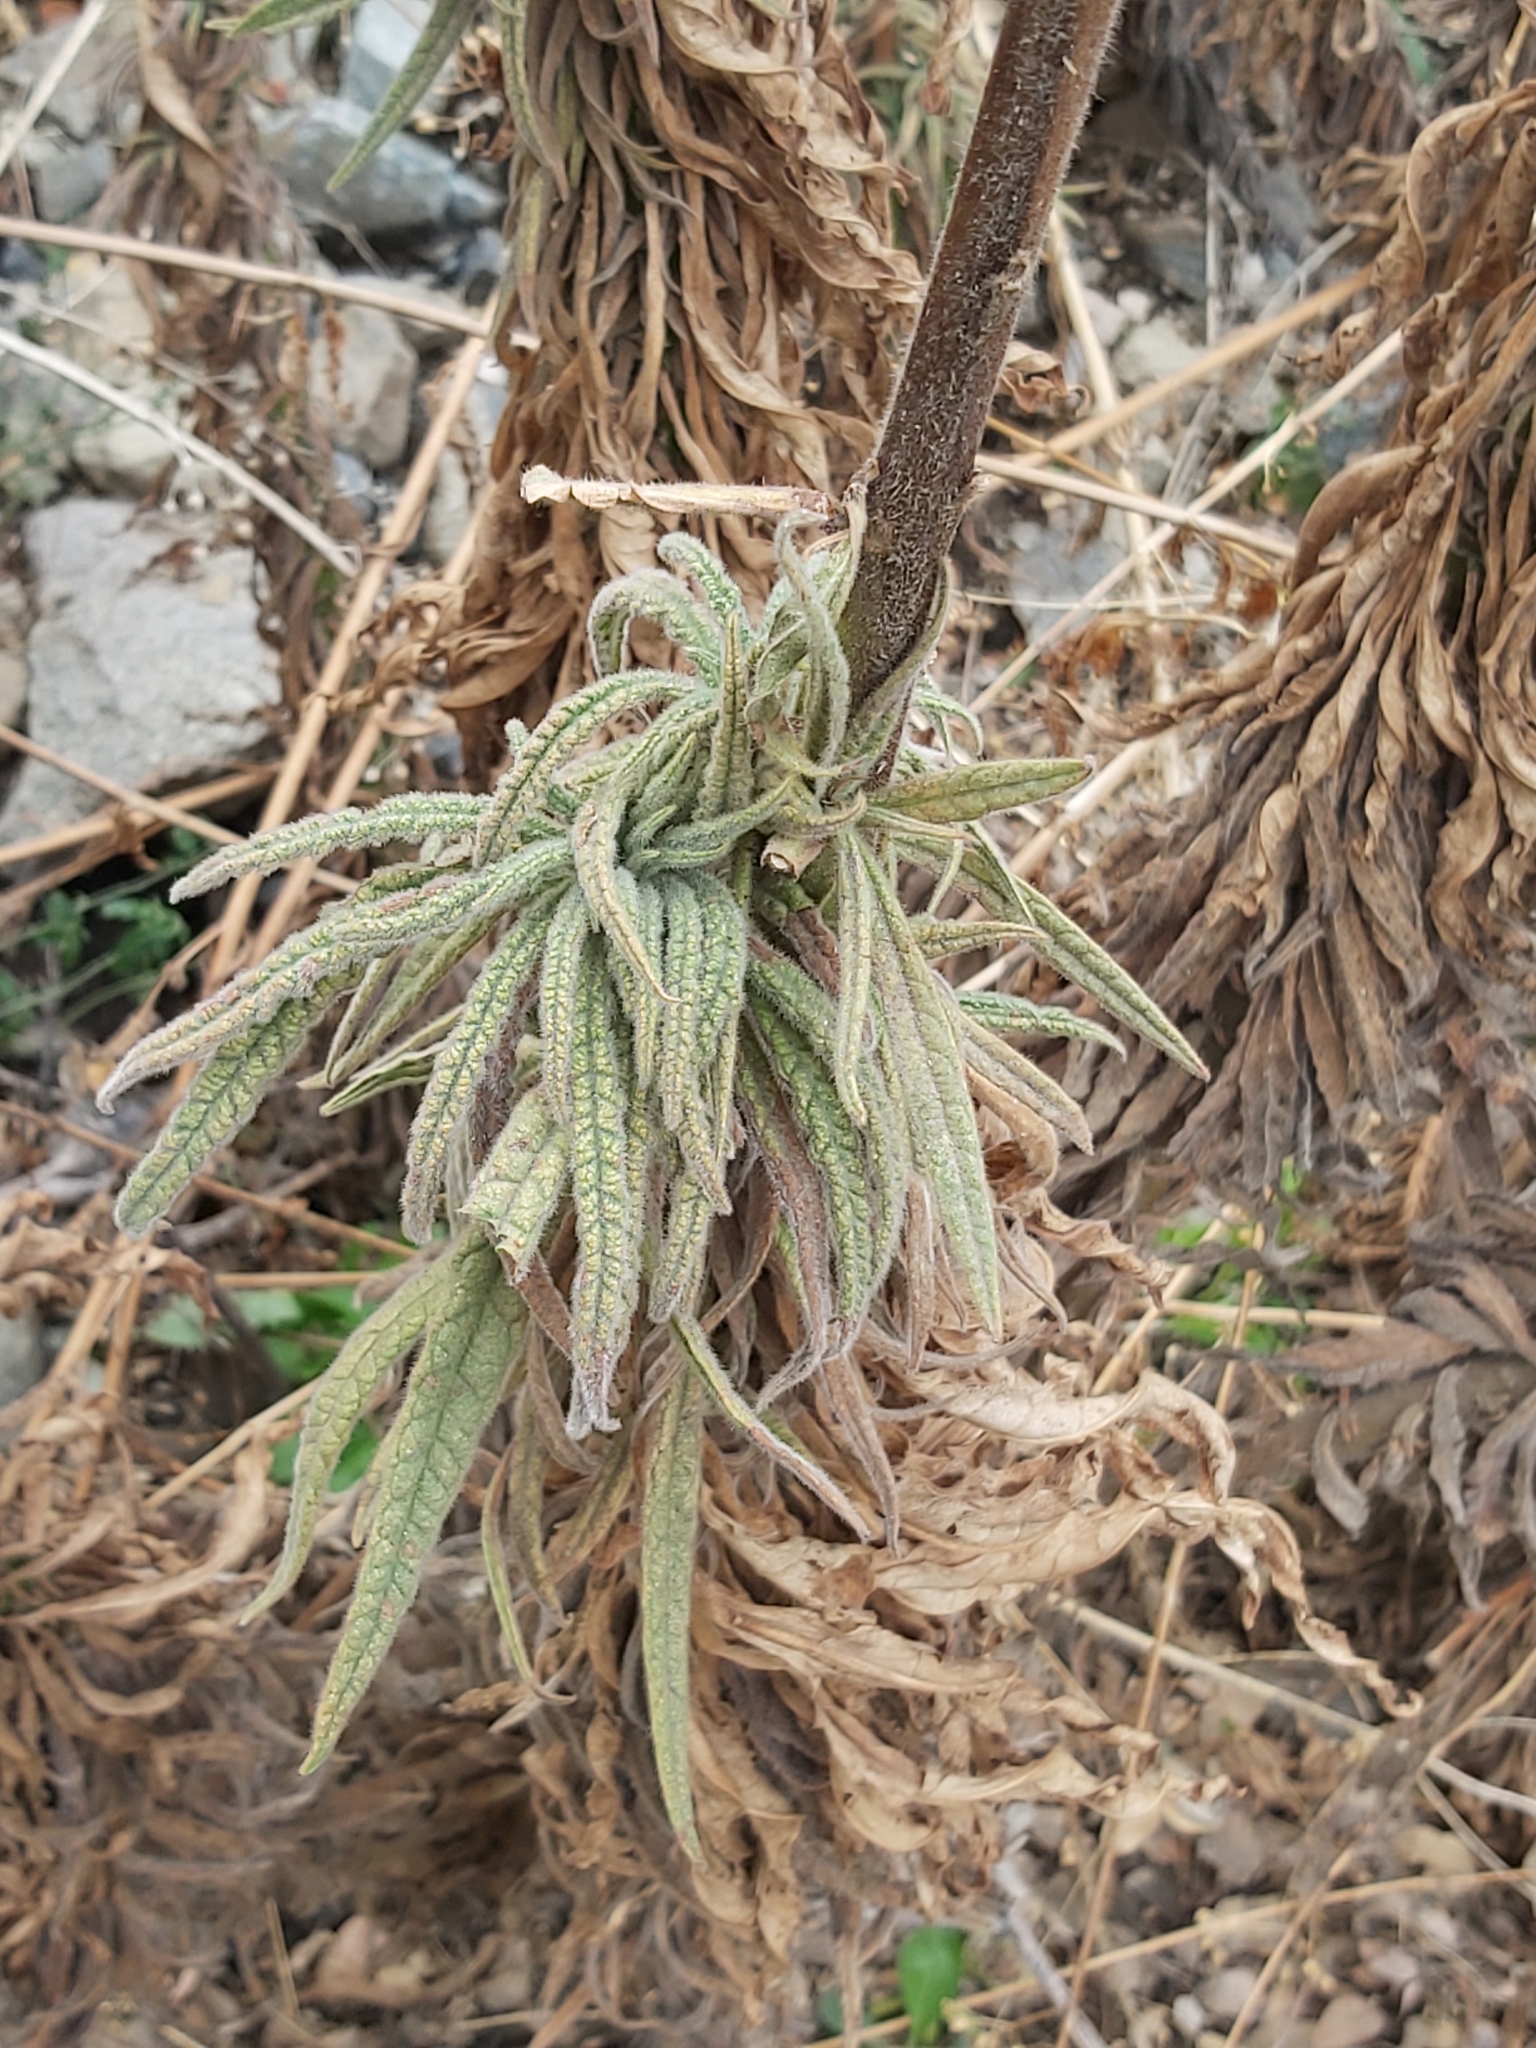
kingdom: Plantae
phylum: Tracheophyta
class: Magnoliopsida
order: Boraginales
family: Namaceae
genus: Turricula
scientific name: Turricula parryi
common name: Poodle-dog-bush
